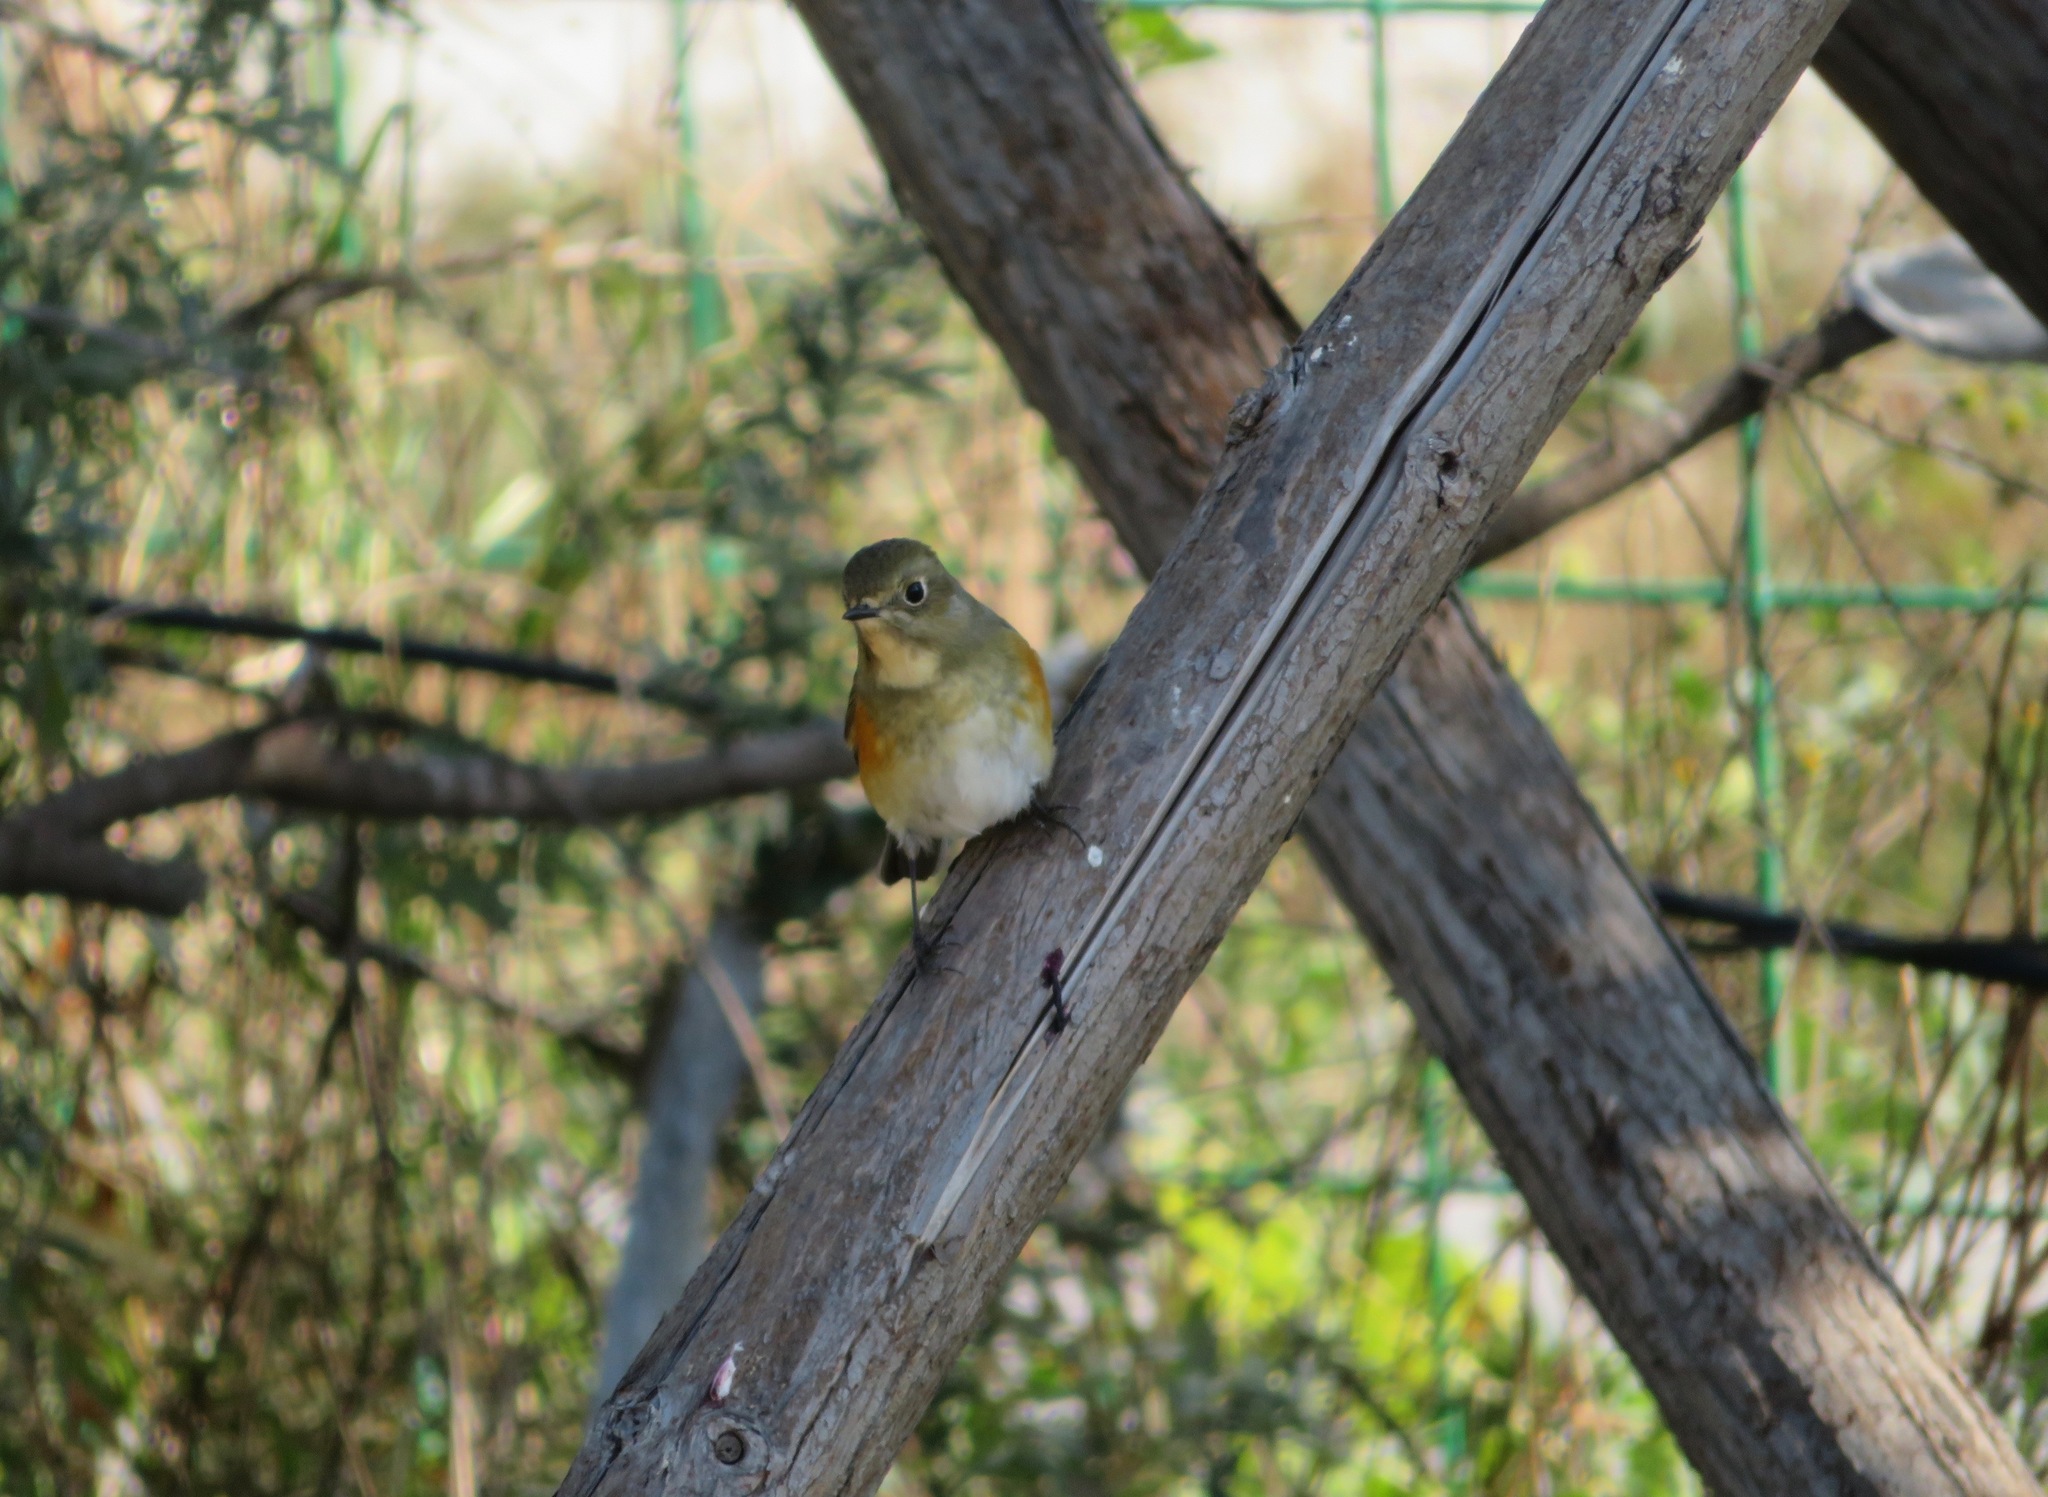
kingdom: Animalia
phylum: Chordata
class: Aves
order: Passeriformes
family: Muscicapidae
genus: Tarsiger
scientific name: Tarsiger cyanurus
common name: Red-flanked bluetail
